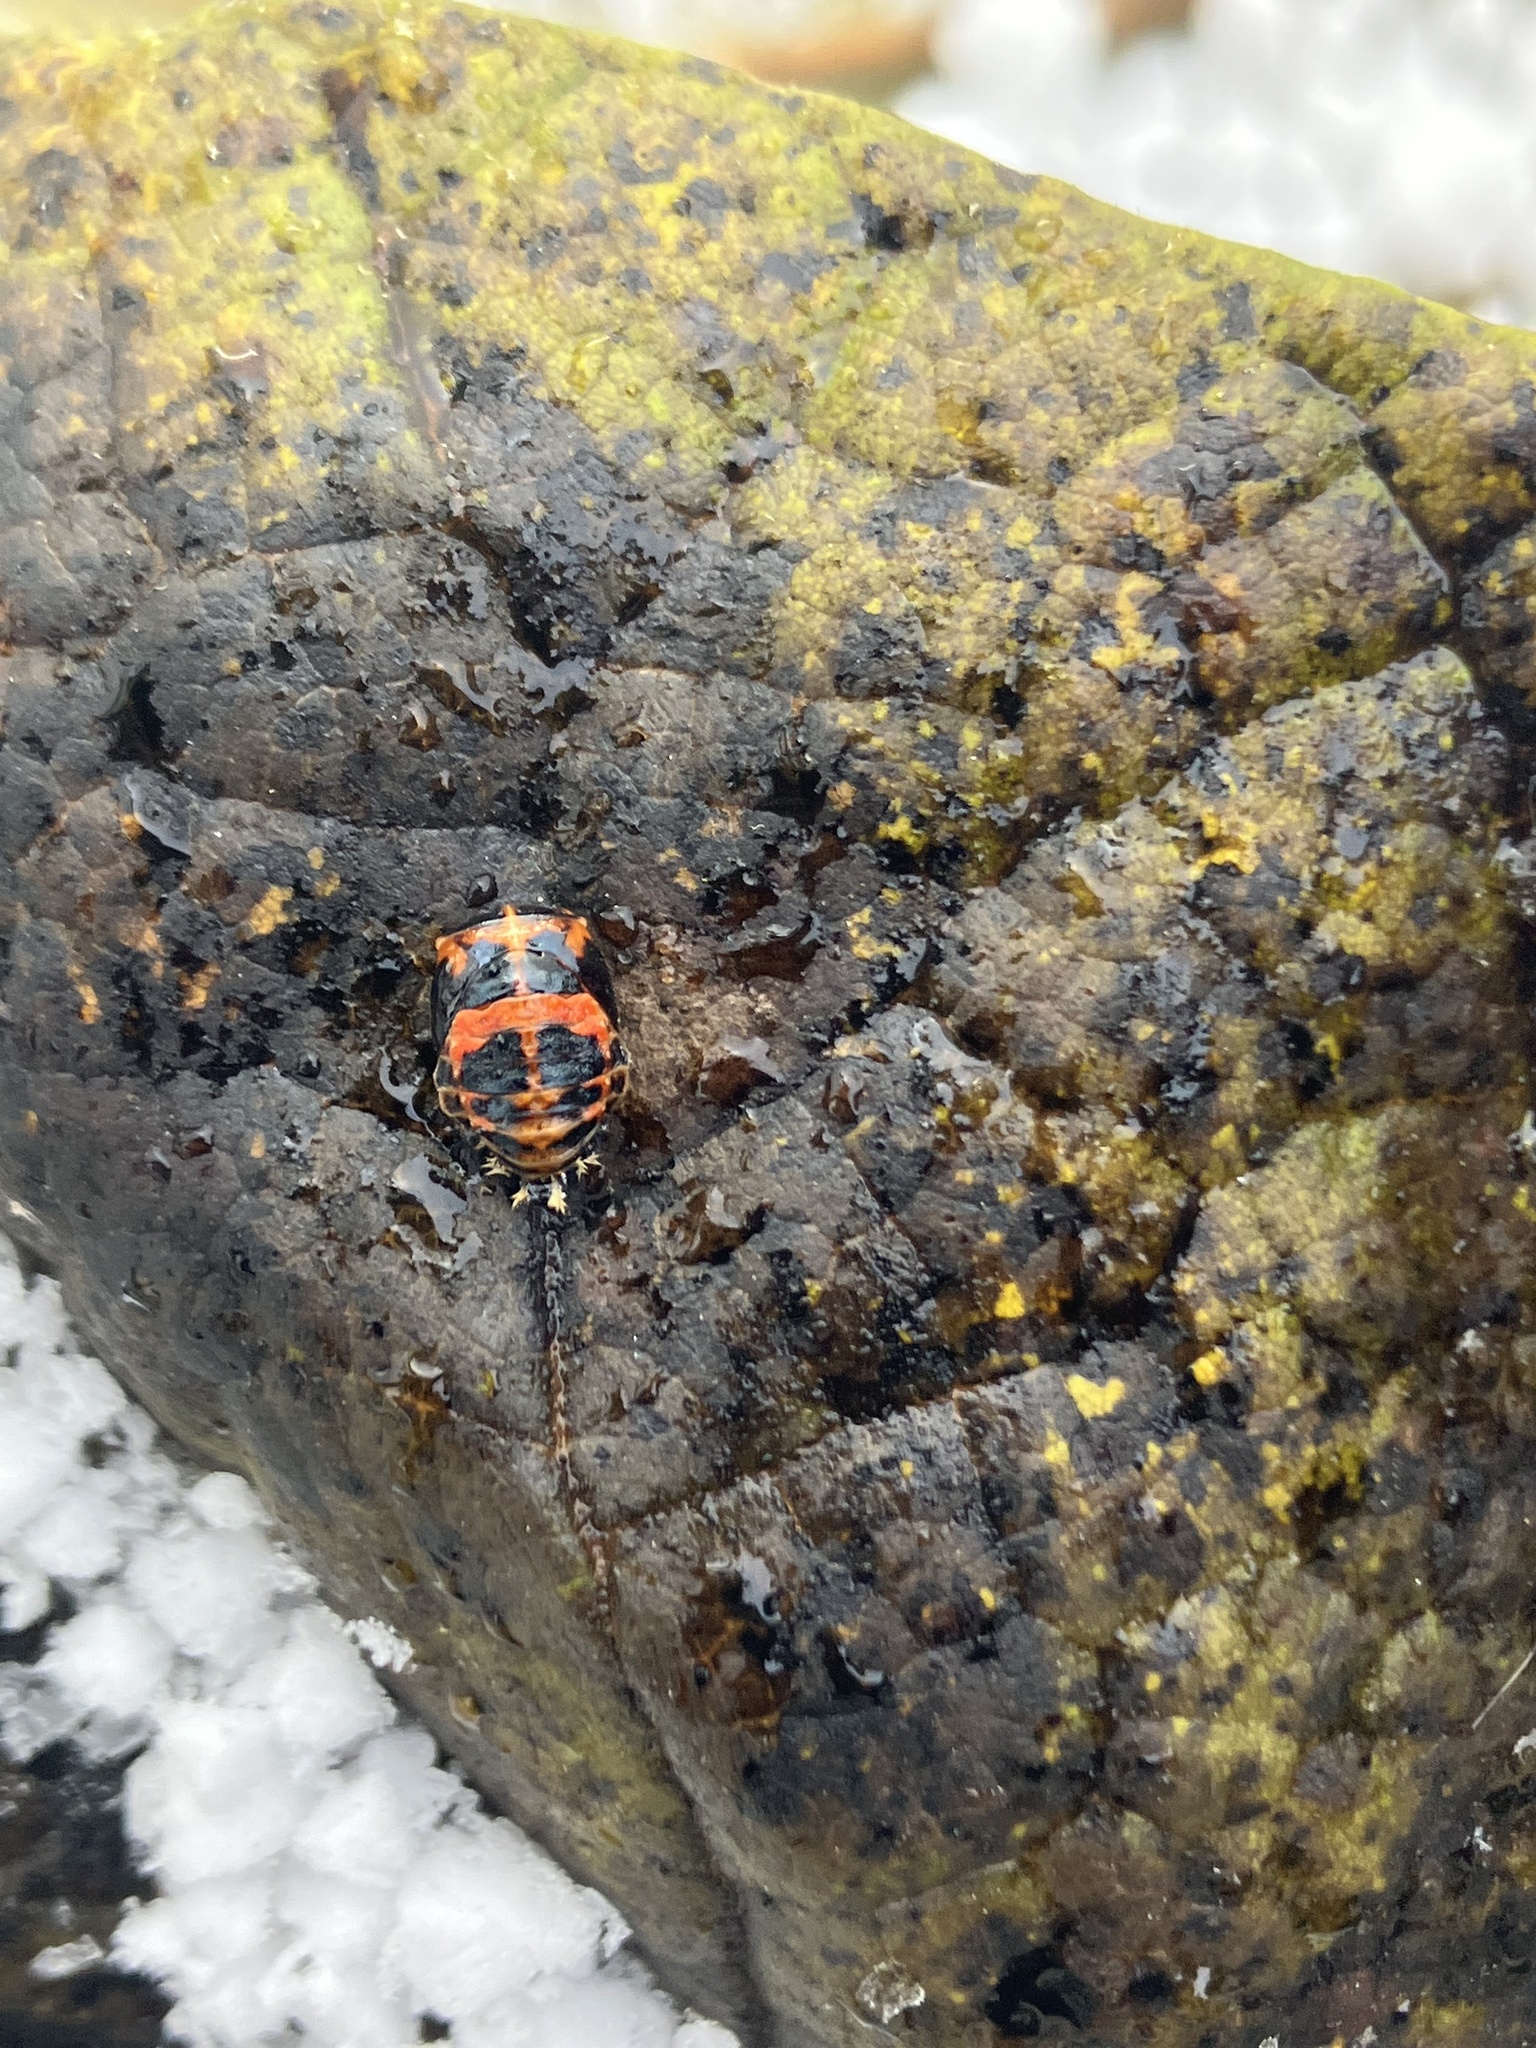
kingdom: Animalia
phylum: Arthropoda
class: Insecta
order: Coleoptera
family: Coccinellidae
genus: Harmonia
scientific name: Harmonia axyridis
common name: Harlequin ladybird
